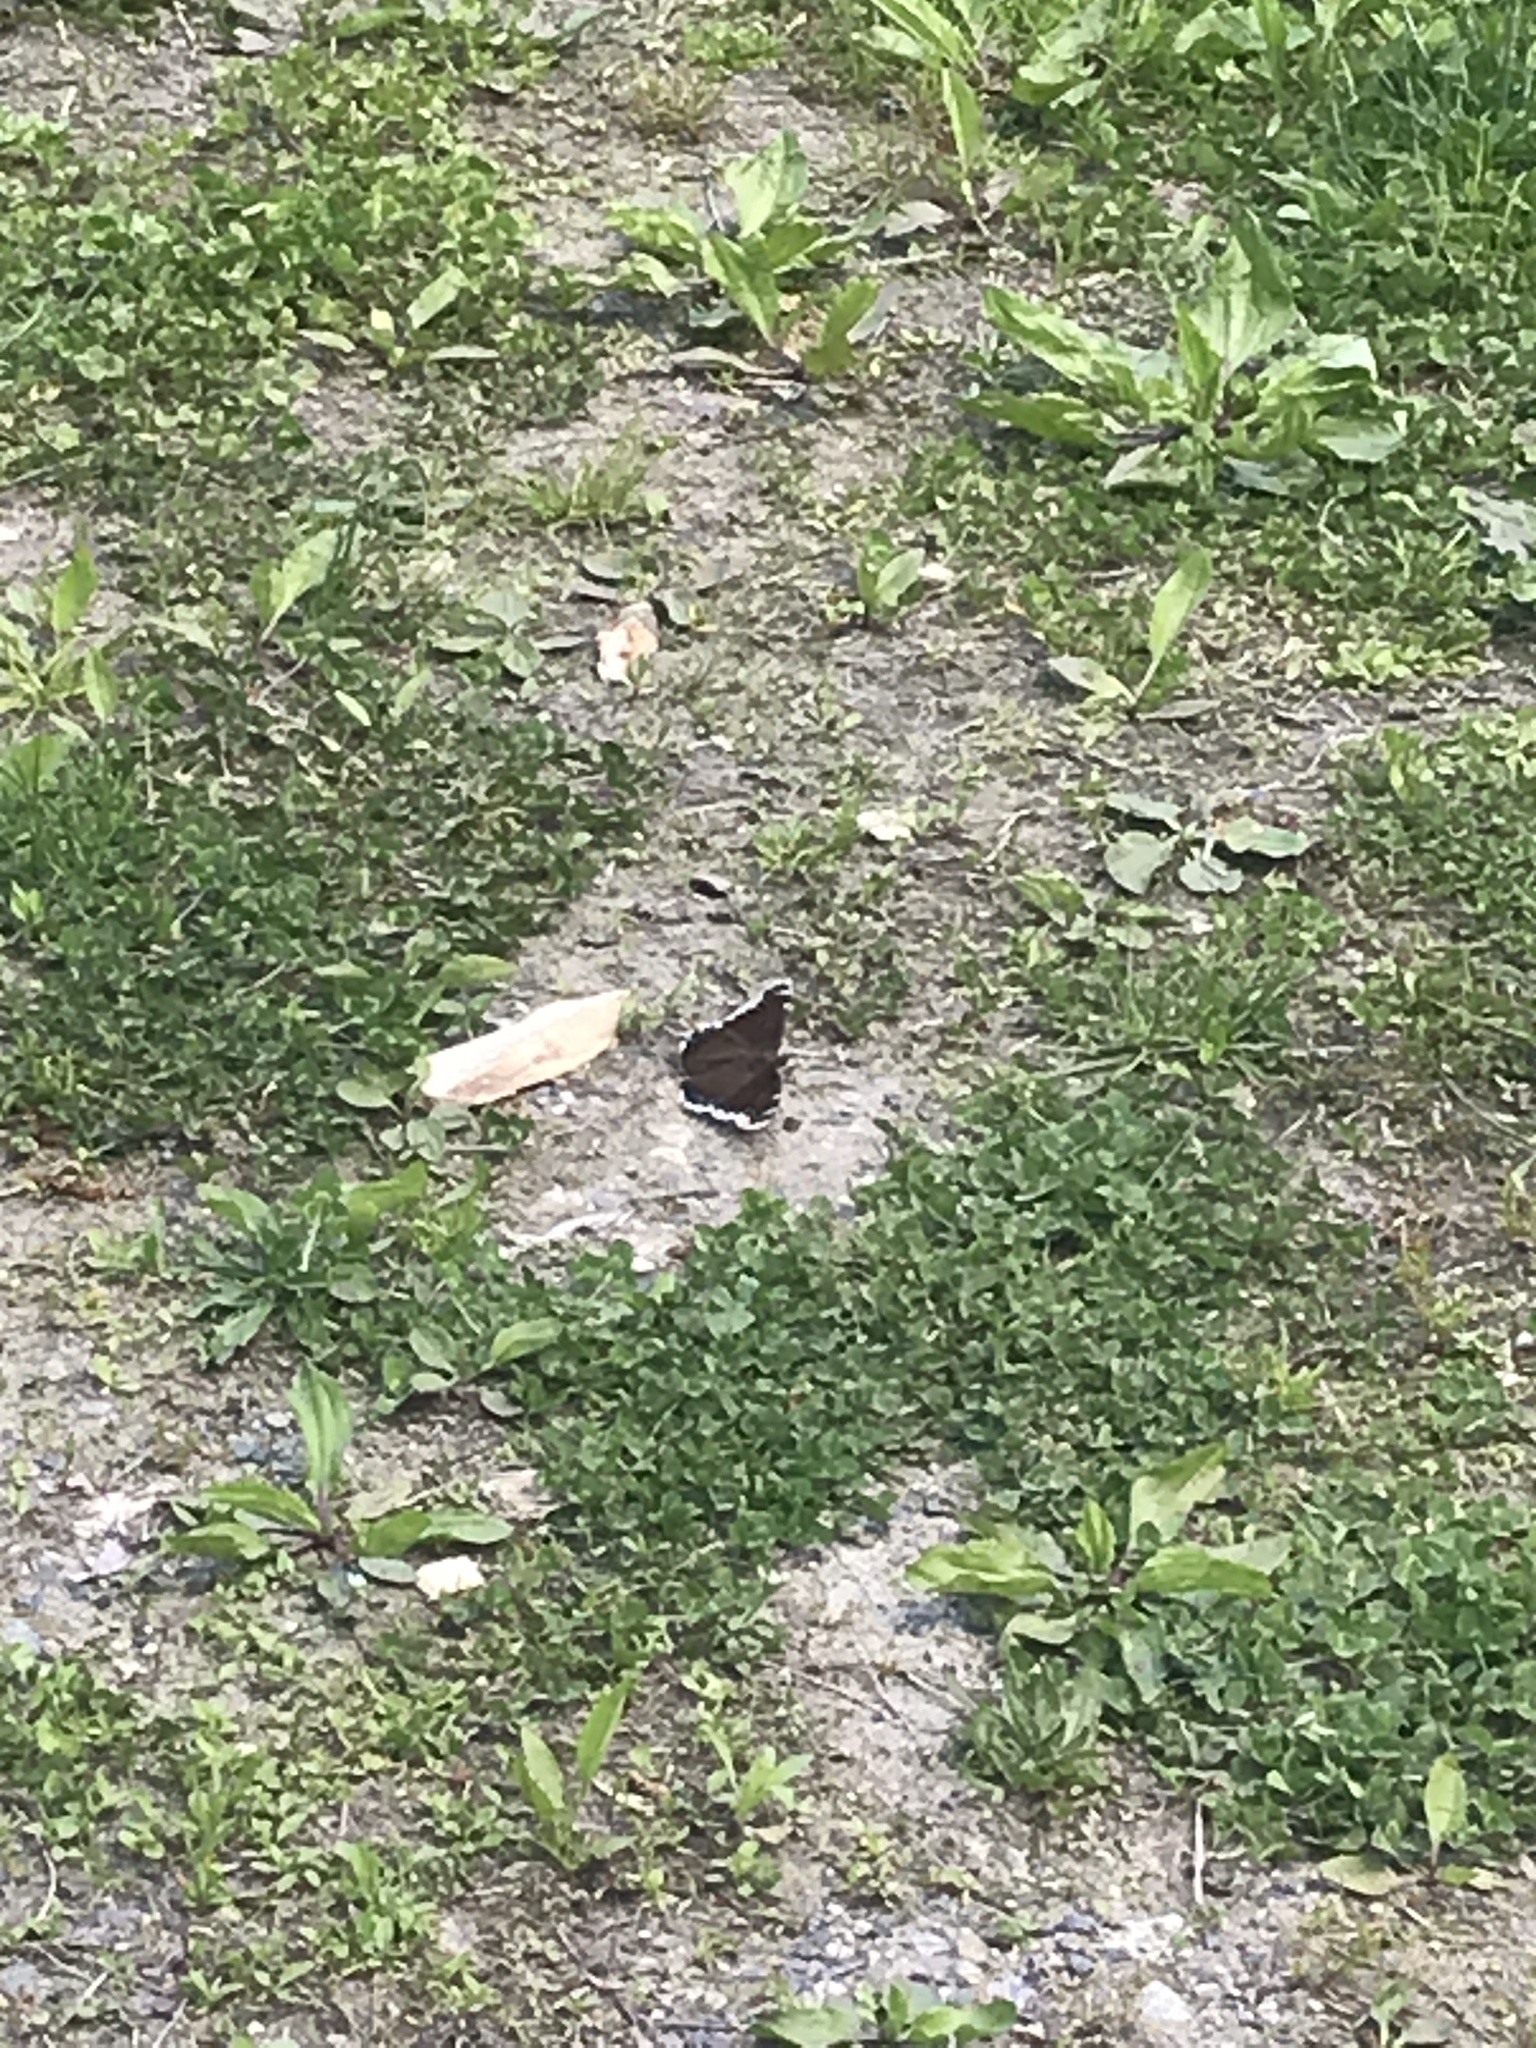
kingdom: Animalia
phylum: Arthropoda
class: Insecta
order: Lepidoptera
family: Nymphalidae
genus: Nymphalis
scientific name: Nymphalis antiopa
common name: Camberwell beauty
